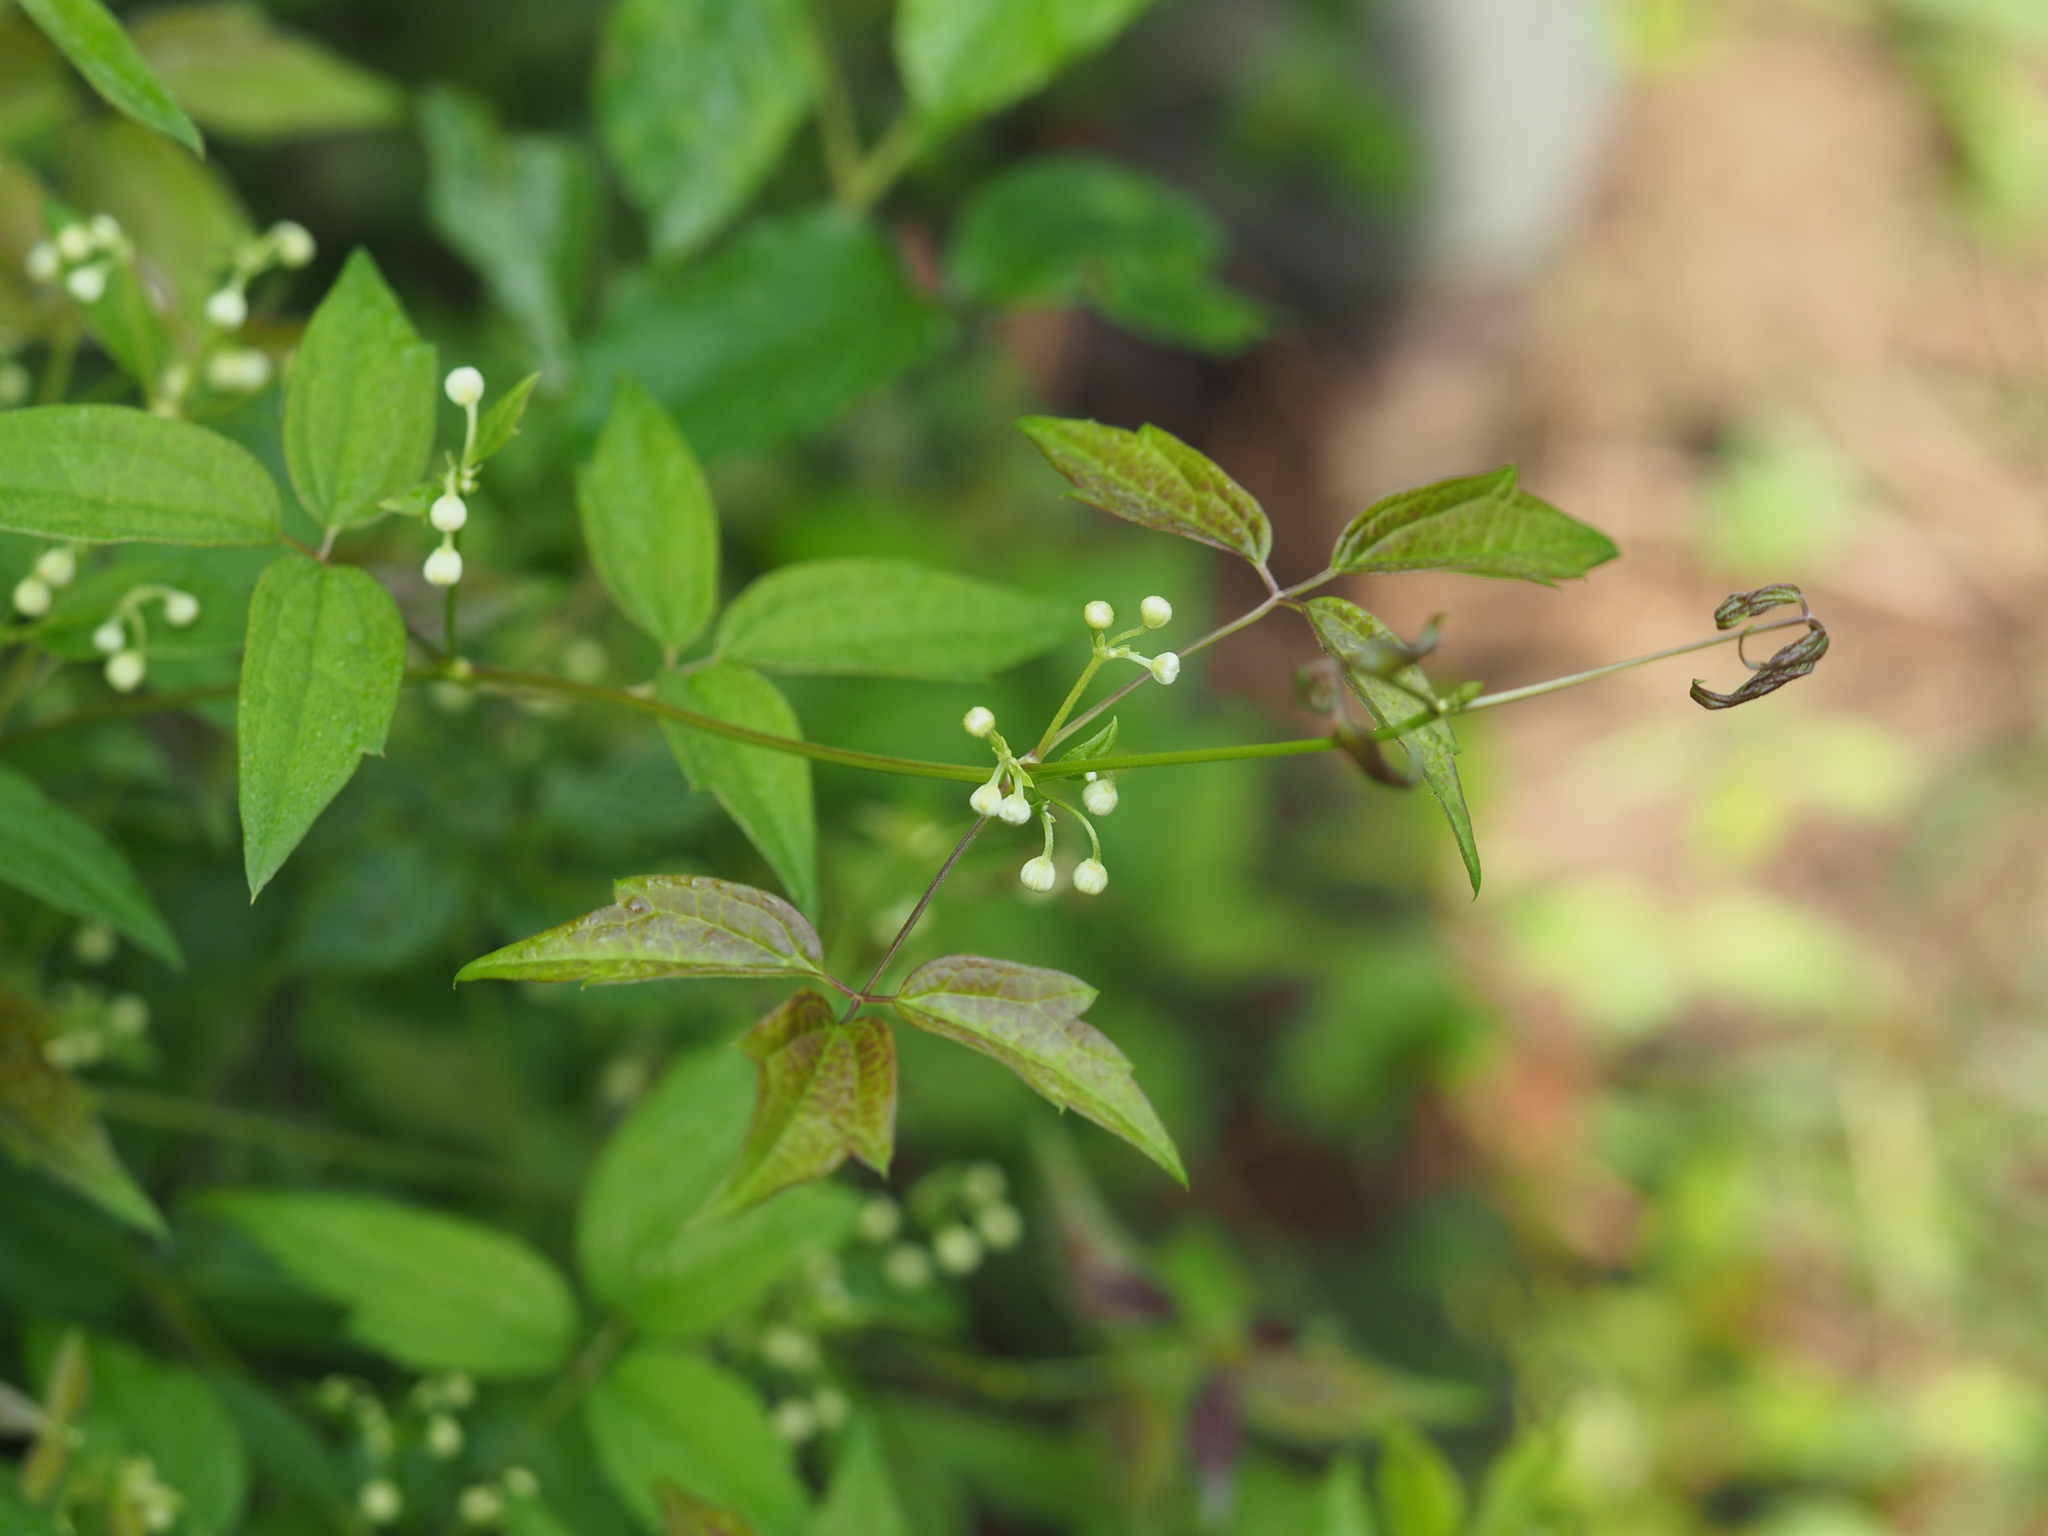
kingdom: Plantae
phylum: Tracheophyta
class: Magnoliopsida
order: Ranunculales
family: Ranunculaceae
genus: Clematis
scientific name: Clematis virginiana
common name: Virgin's-bower
